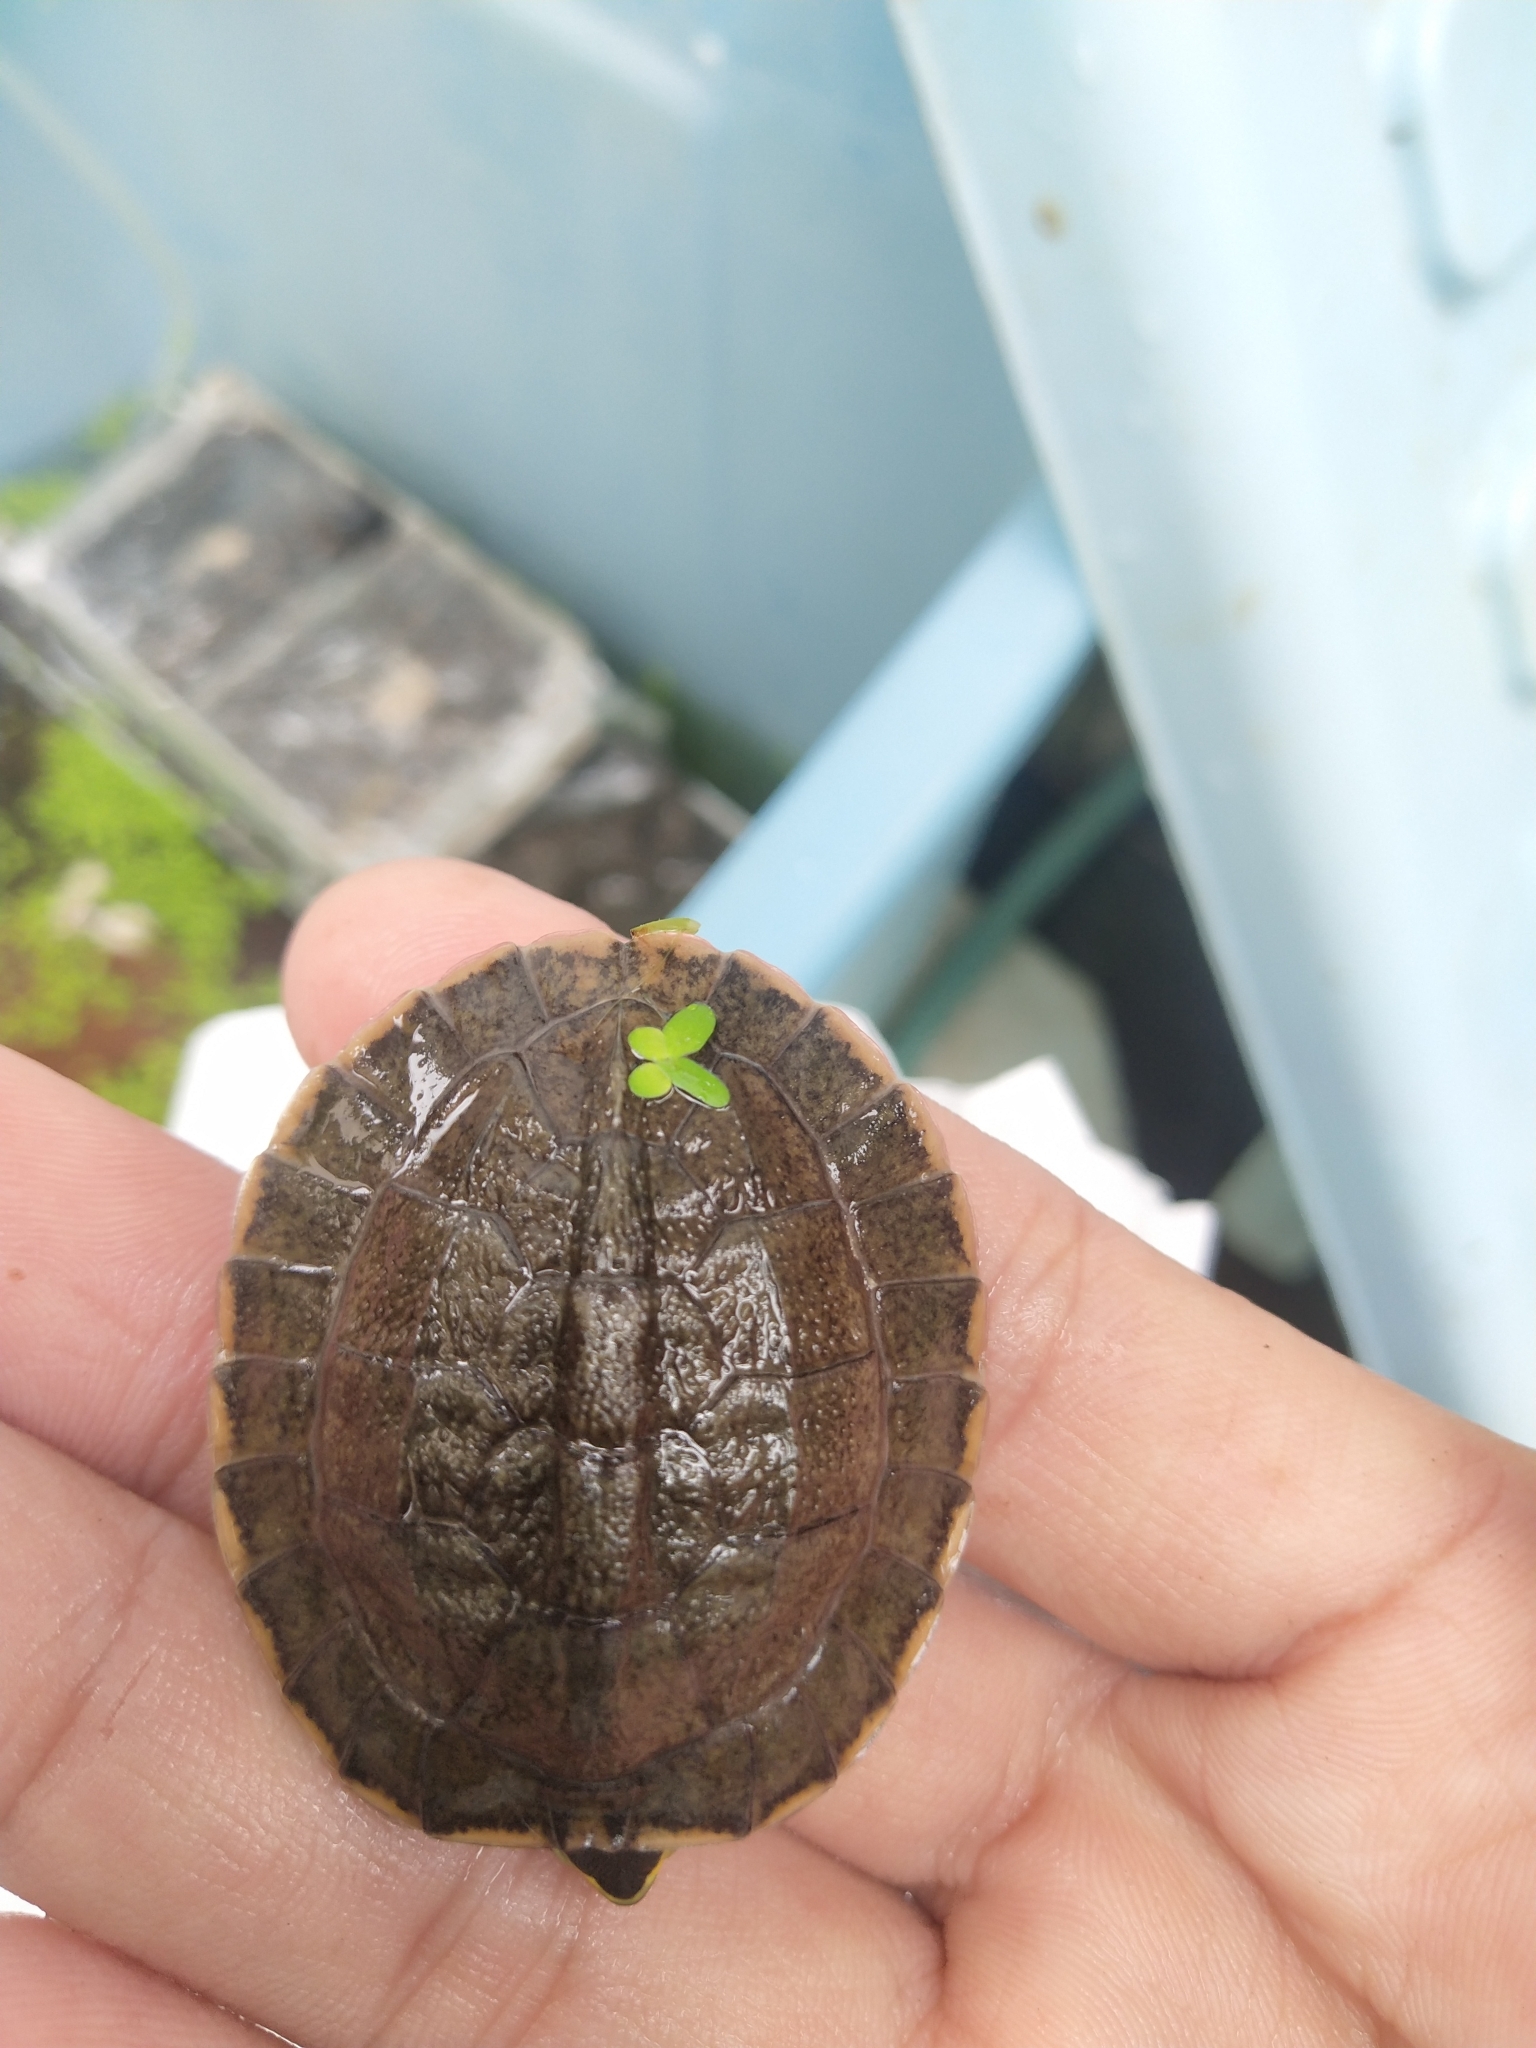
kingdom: Animalia
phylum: Chordata
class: Testudines
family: Geoemydidae
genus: Cuora
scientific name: Cuora
